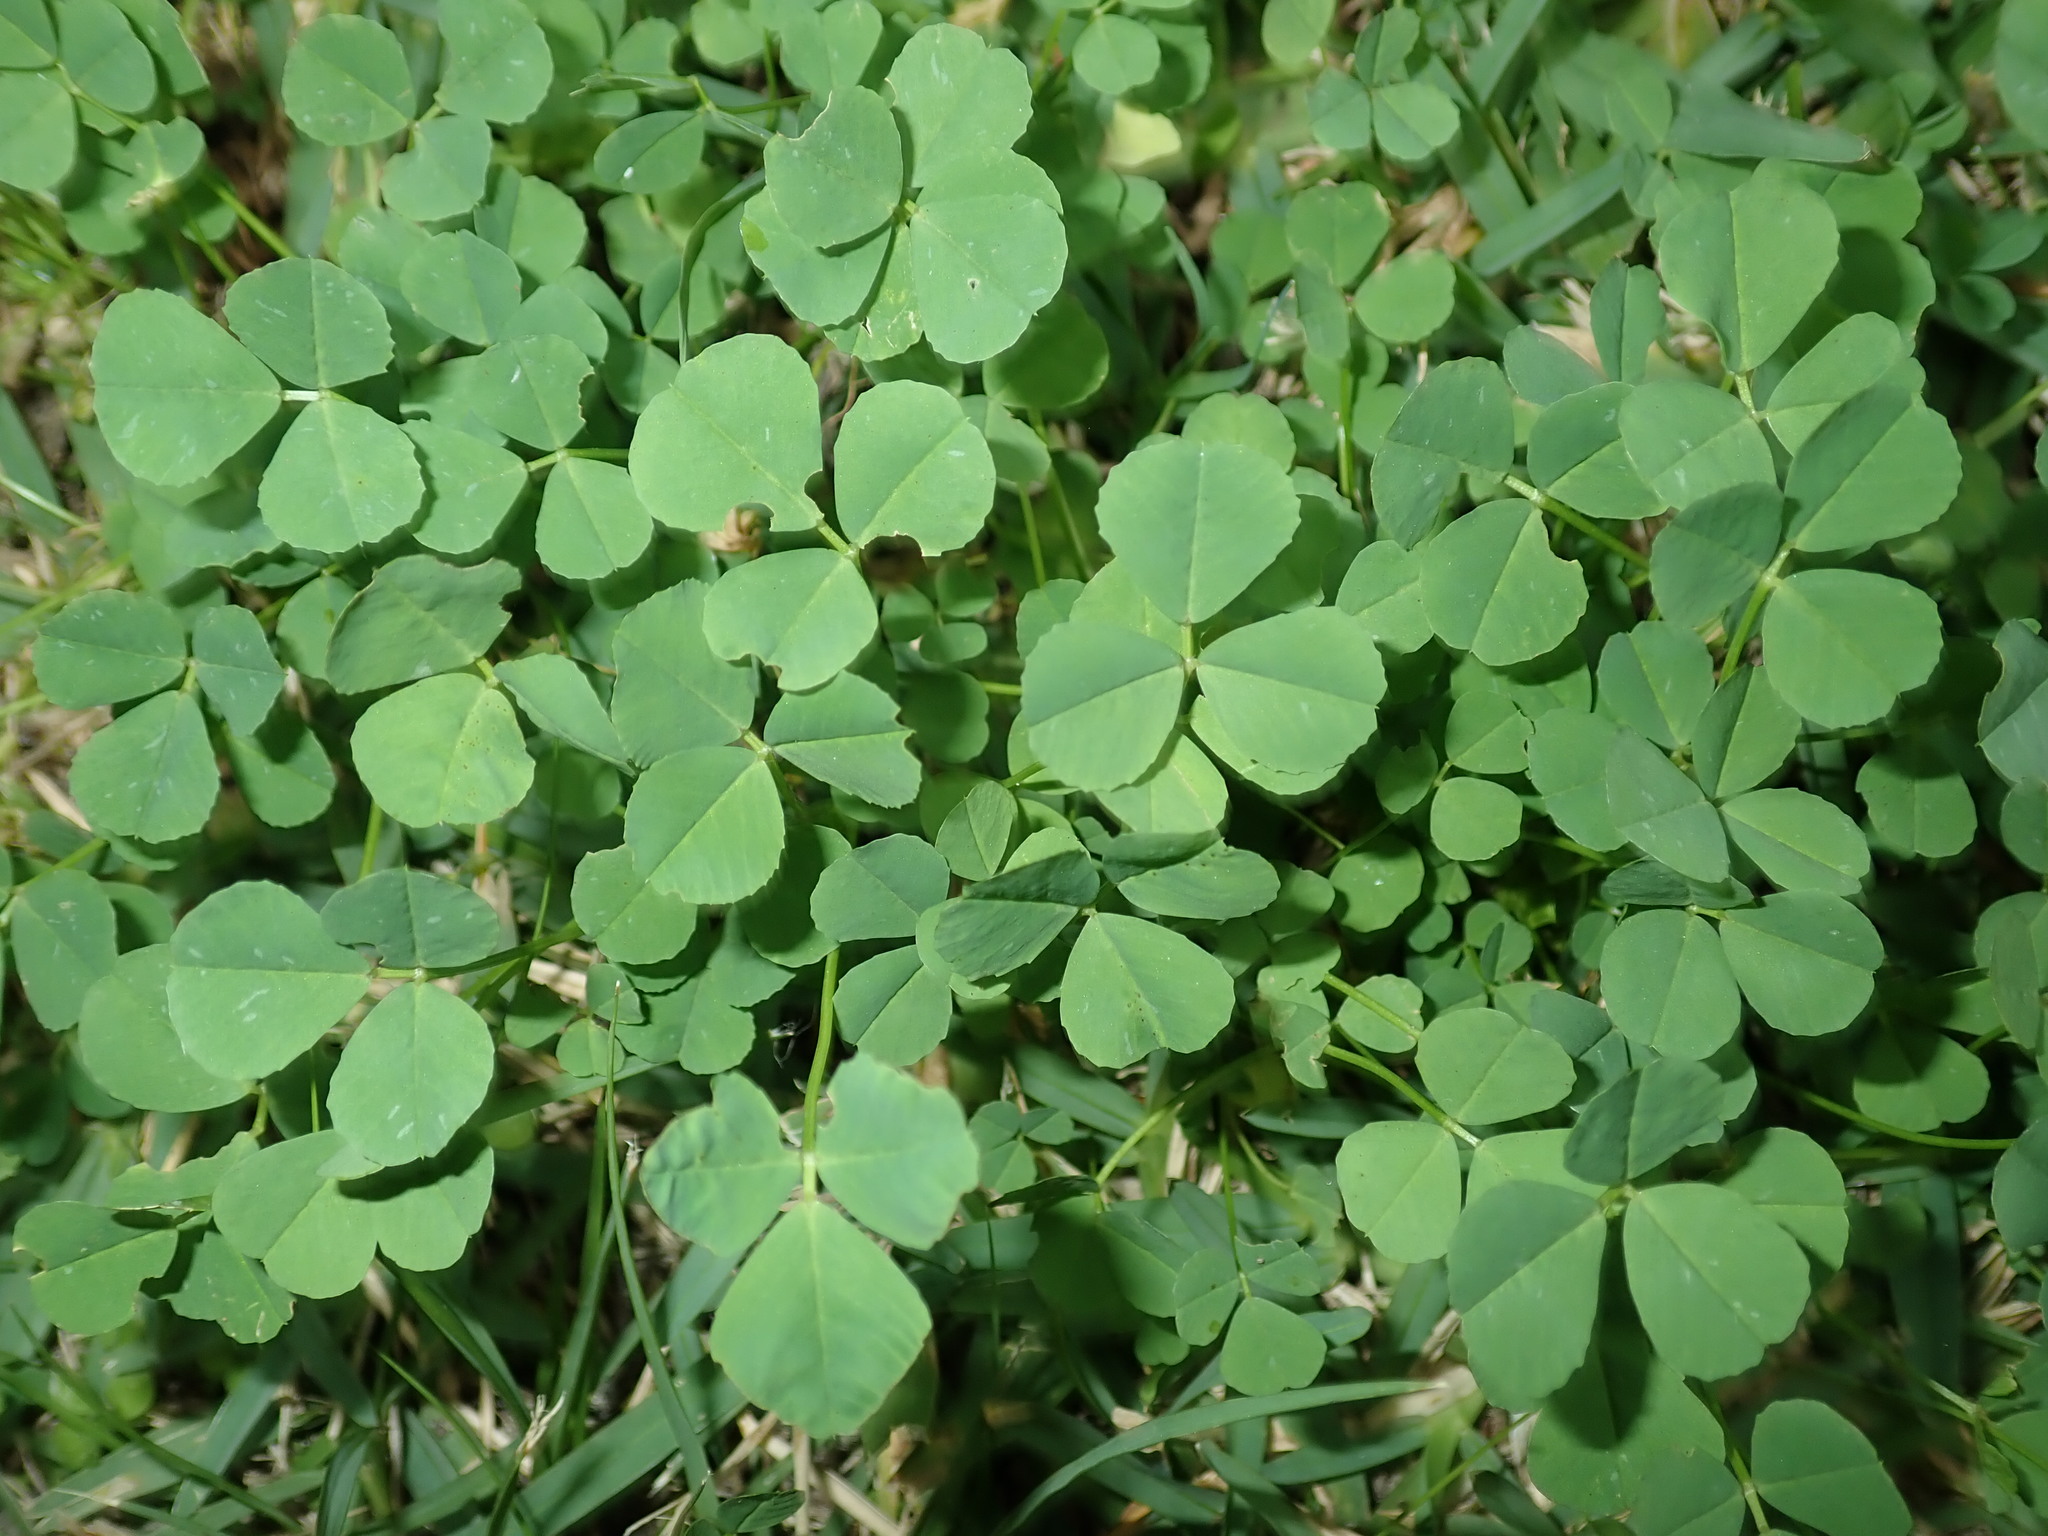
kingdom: Plantae
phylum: Tracheophyta
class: Magnoliopsida
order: Fabales
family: Fabaceae
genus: Medicago
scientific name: Medicago polymorpha
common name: Burclover
